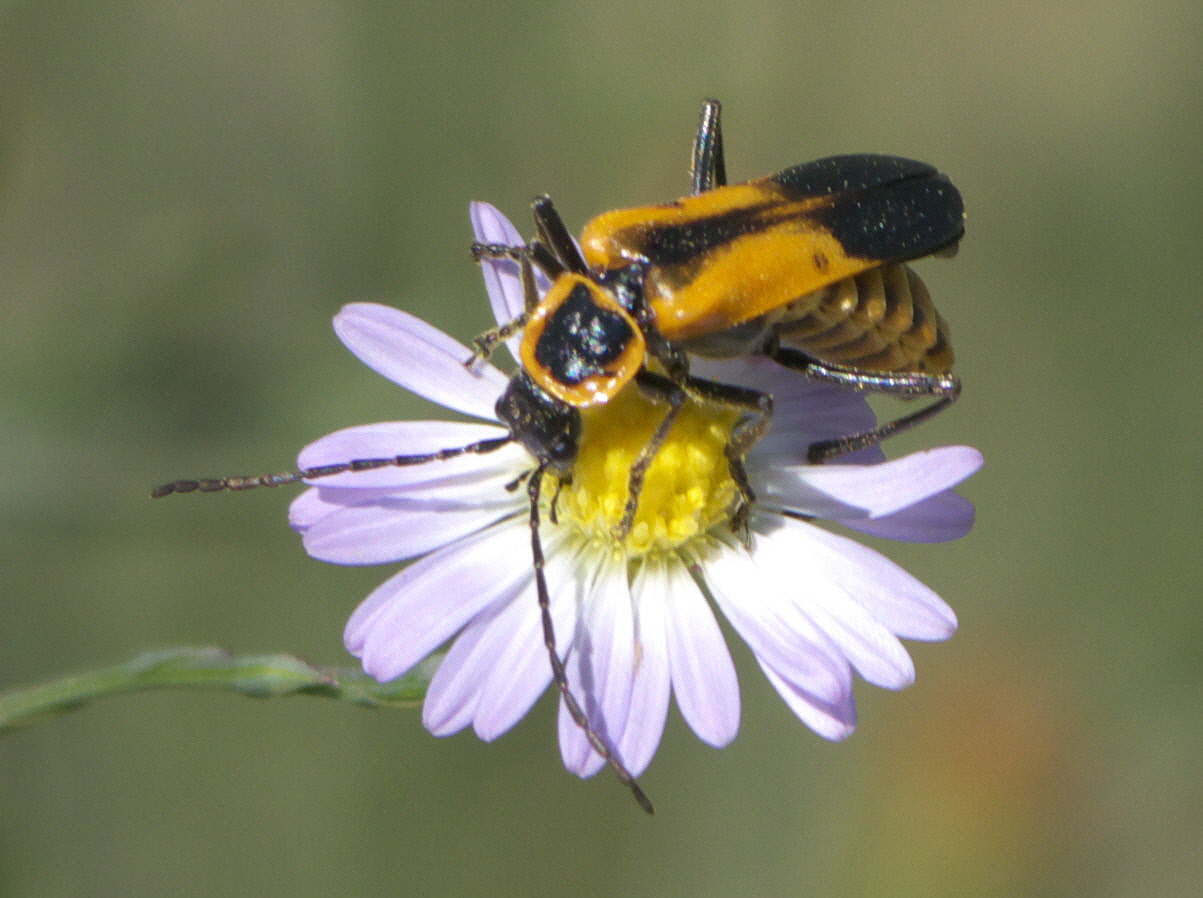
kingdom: Animalia
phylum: Arthropoda
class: Insecta
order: Coleoptera
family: Cantharidae
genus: Chauliognathus
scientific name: Chauliognathus
